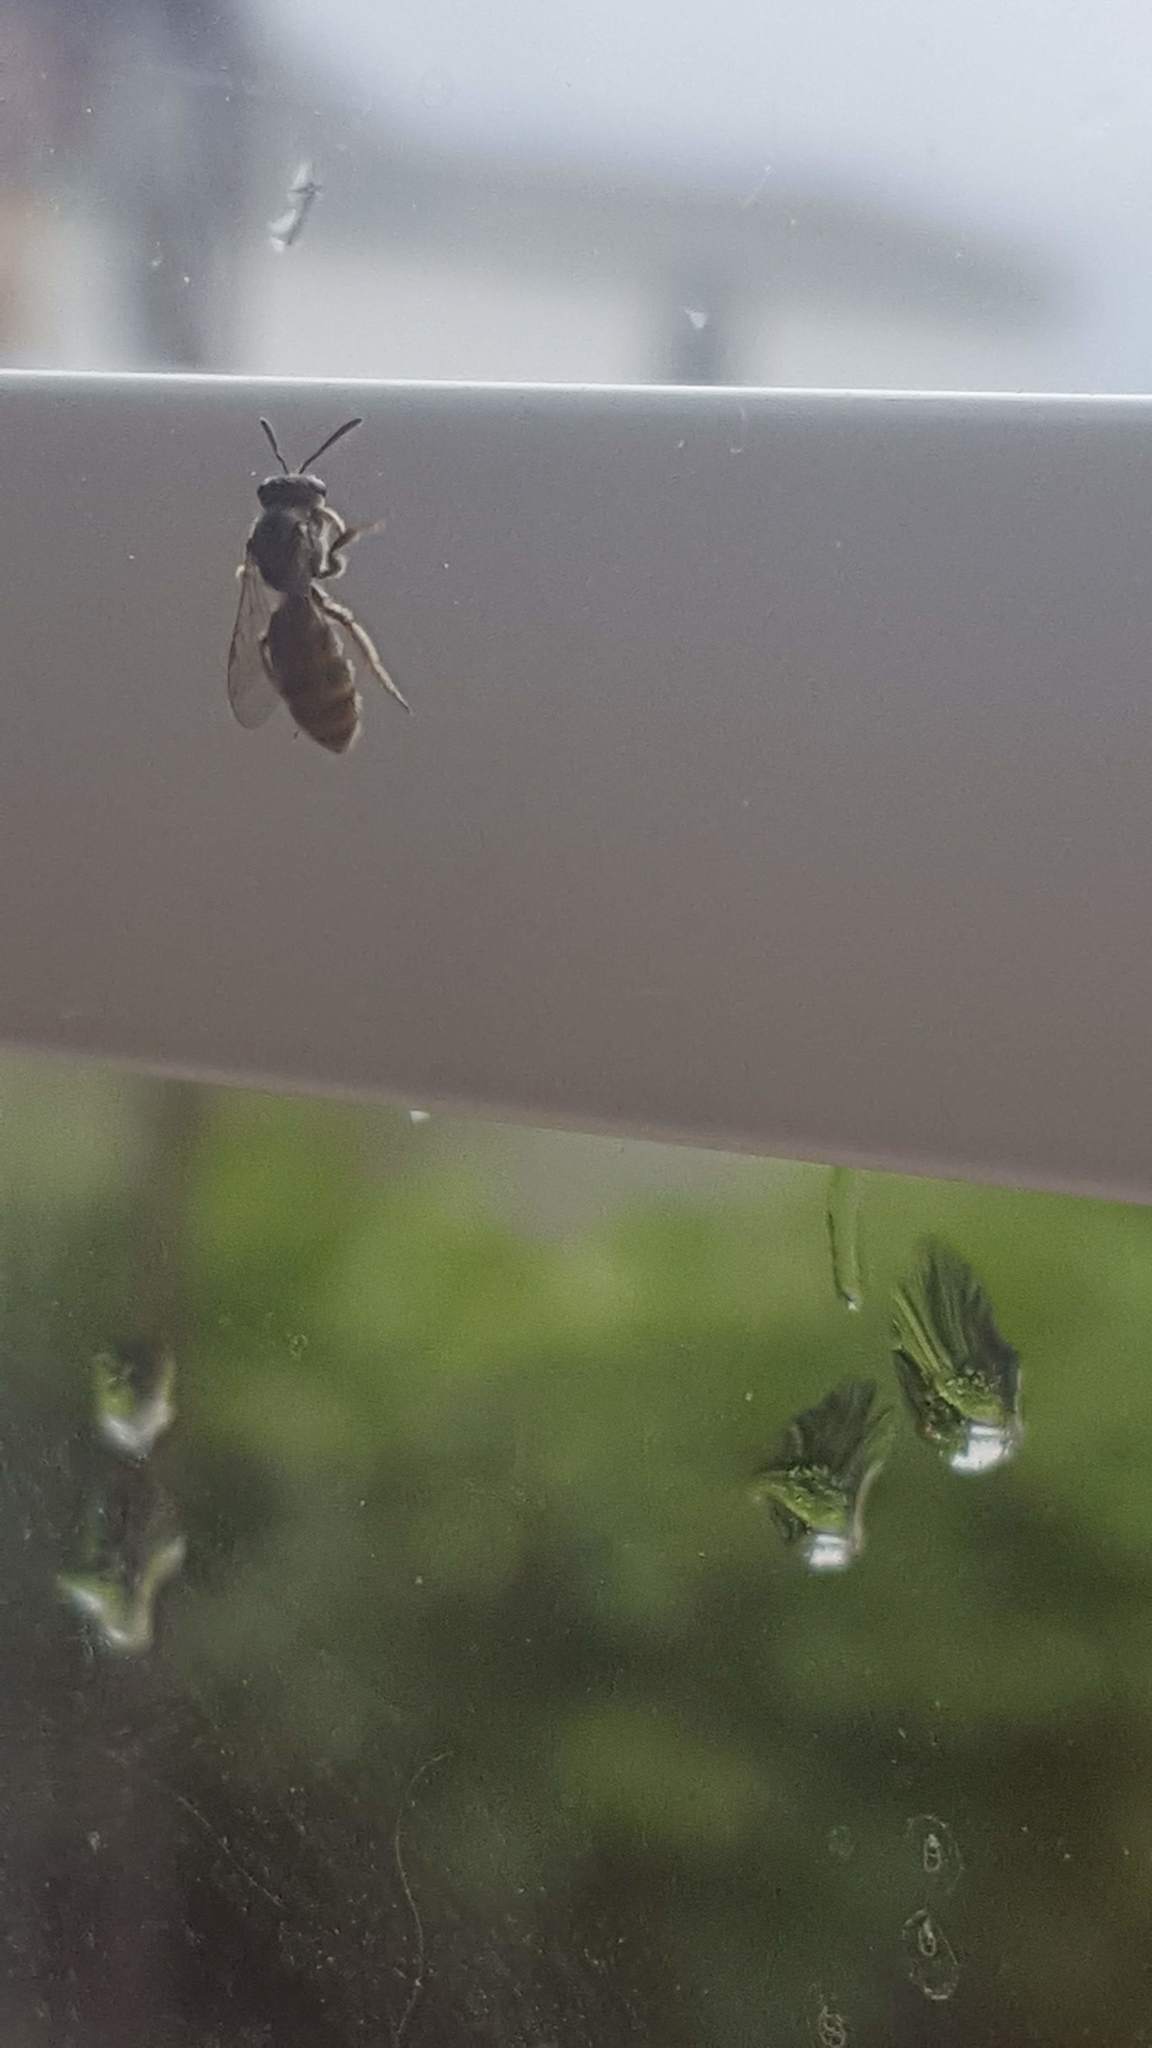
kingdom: Animalia
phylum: Arthropoda
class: Insecta
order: Hymenoptera
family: Halictidae
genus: Lasioglossum
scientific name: Lasioglossum
